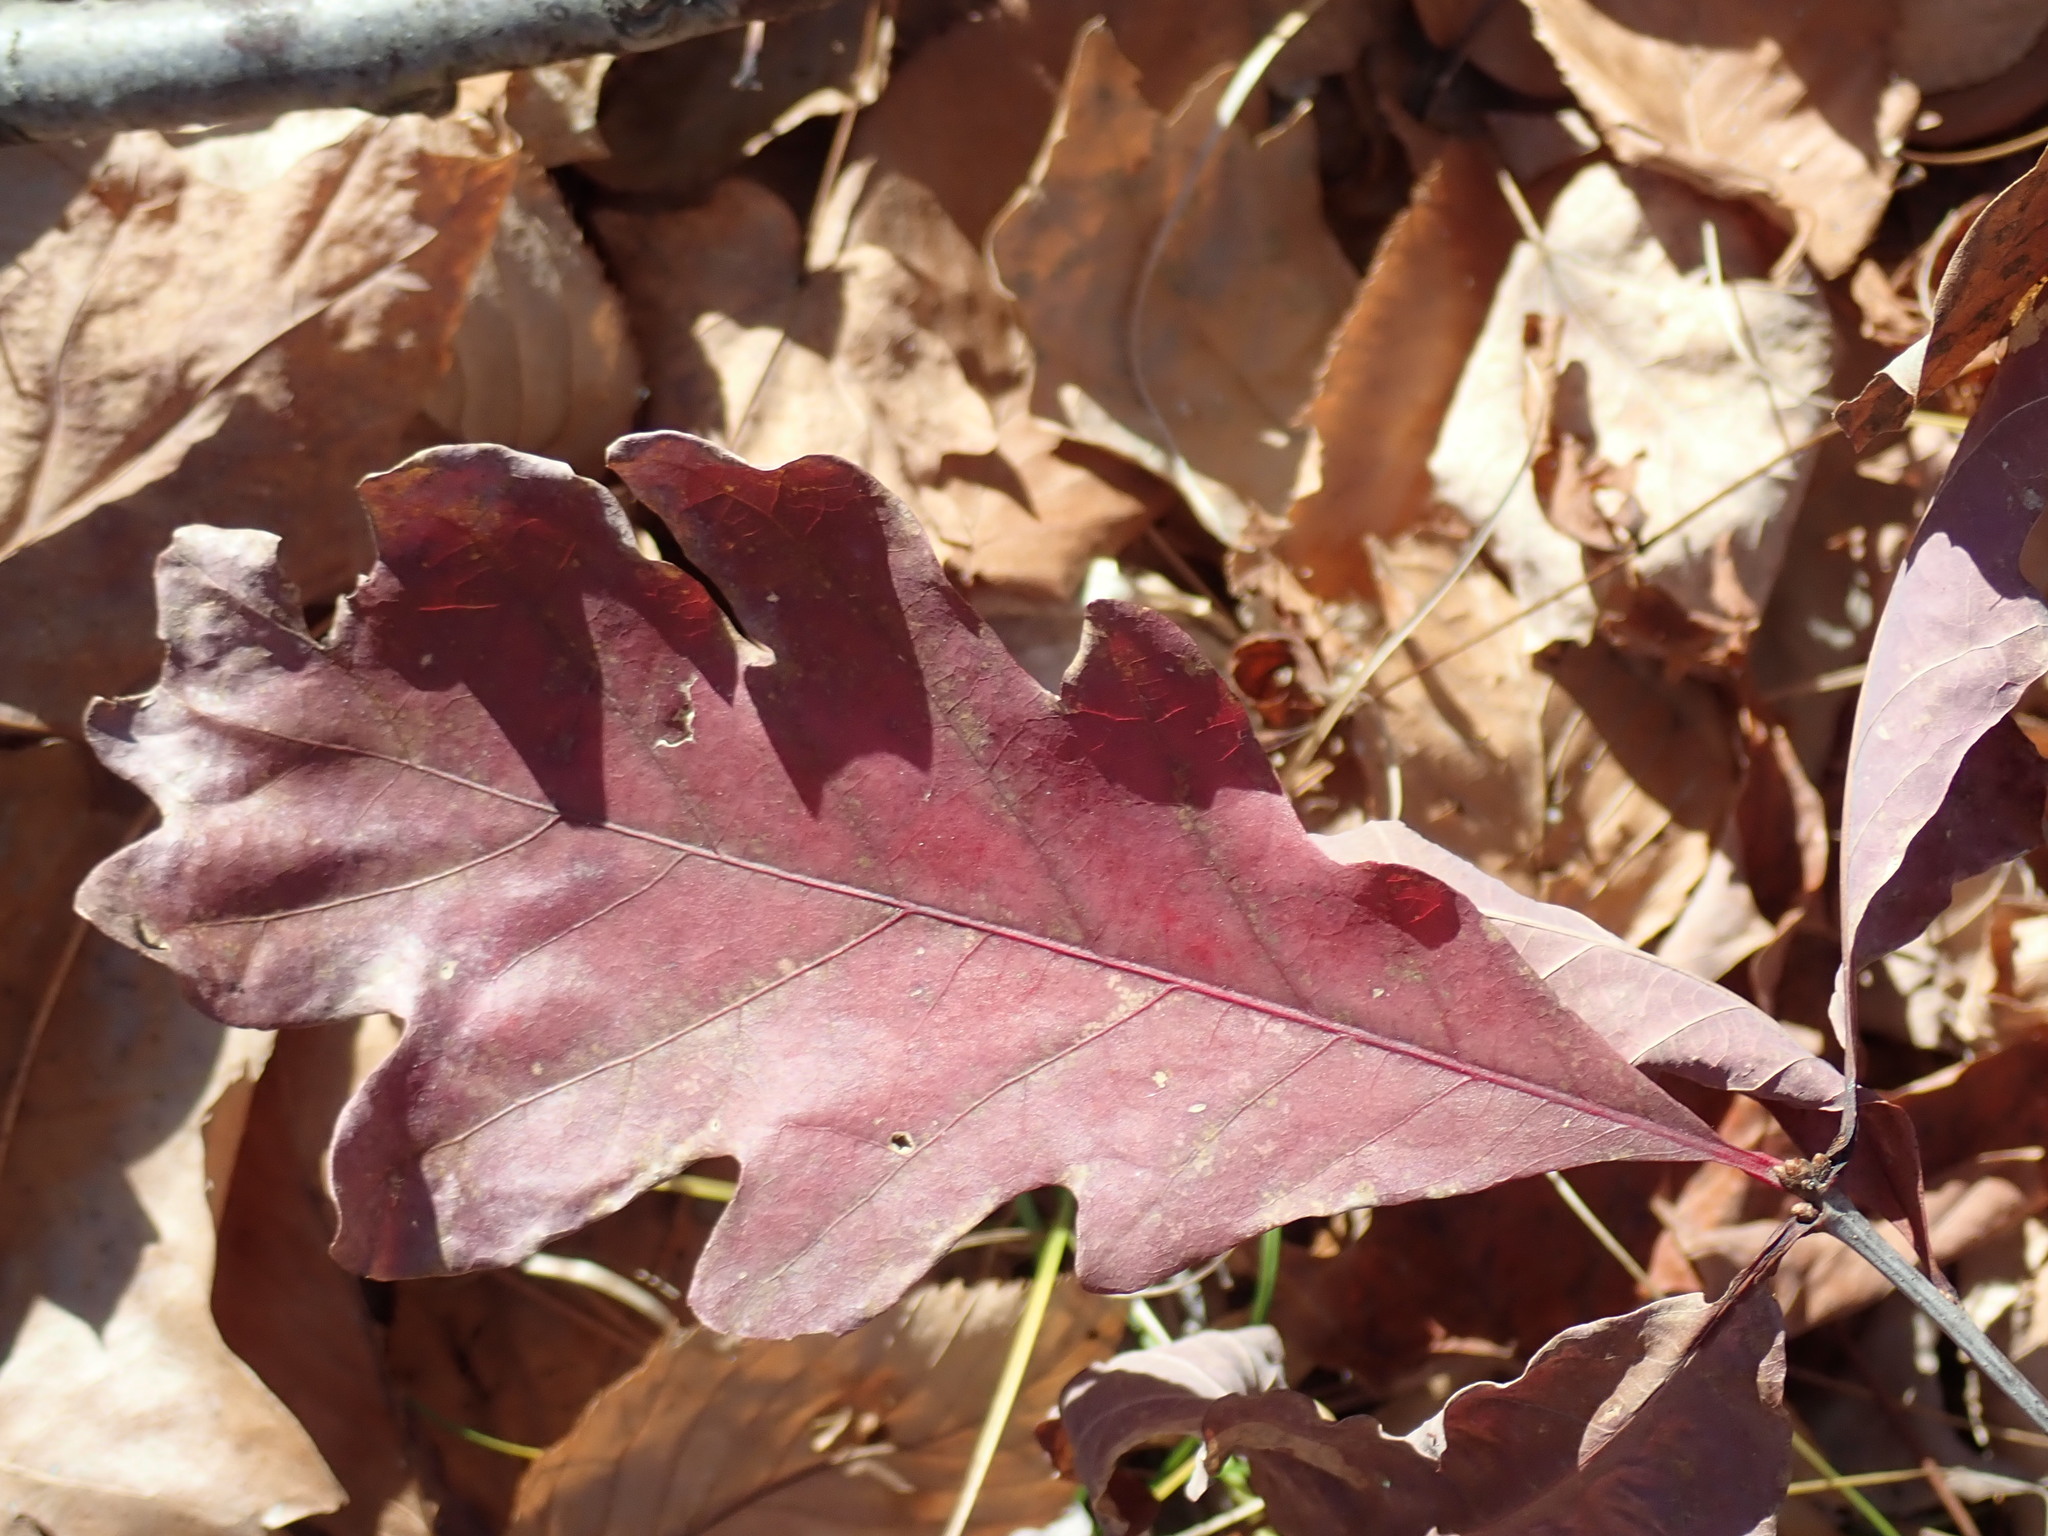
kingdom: Plantae
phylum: Tracheophyta
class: Magnoliopsida
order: Fagales
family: Fagaceae
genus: Quercus
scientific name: Quercus alba
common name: White oak
